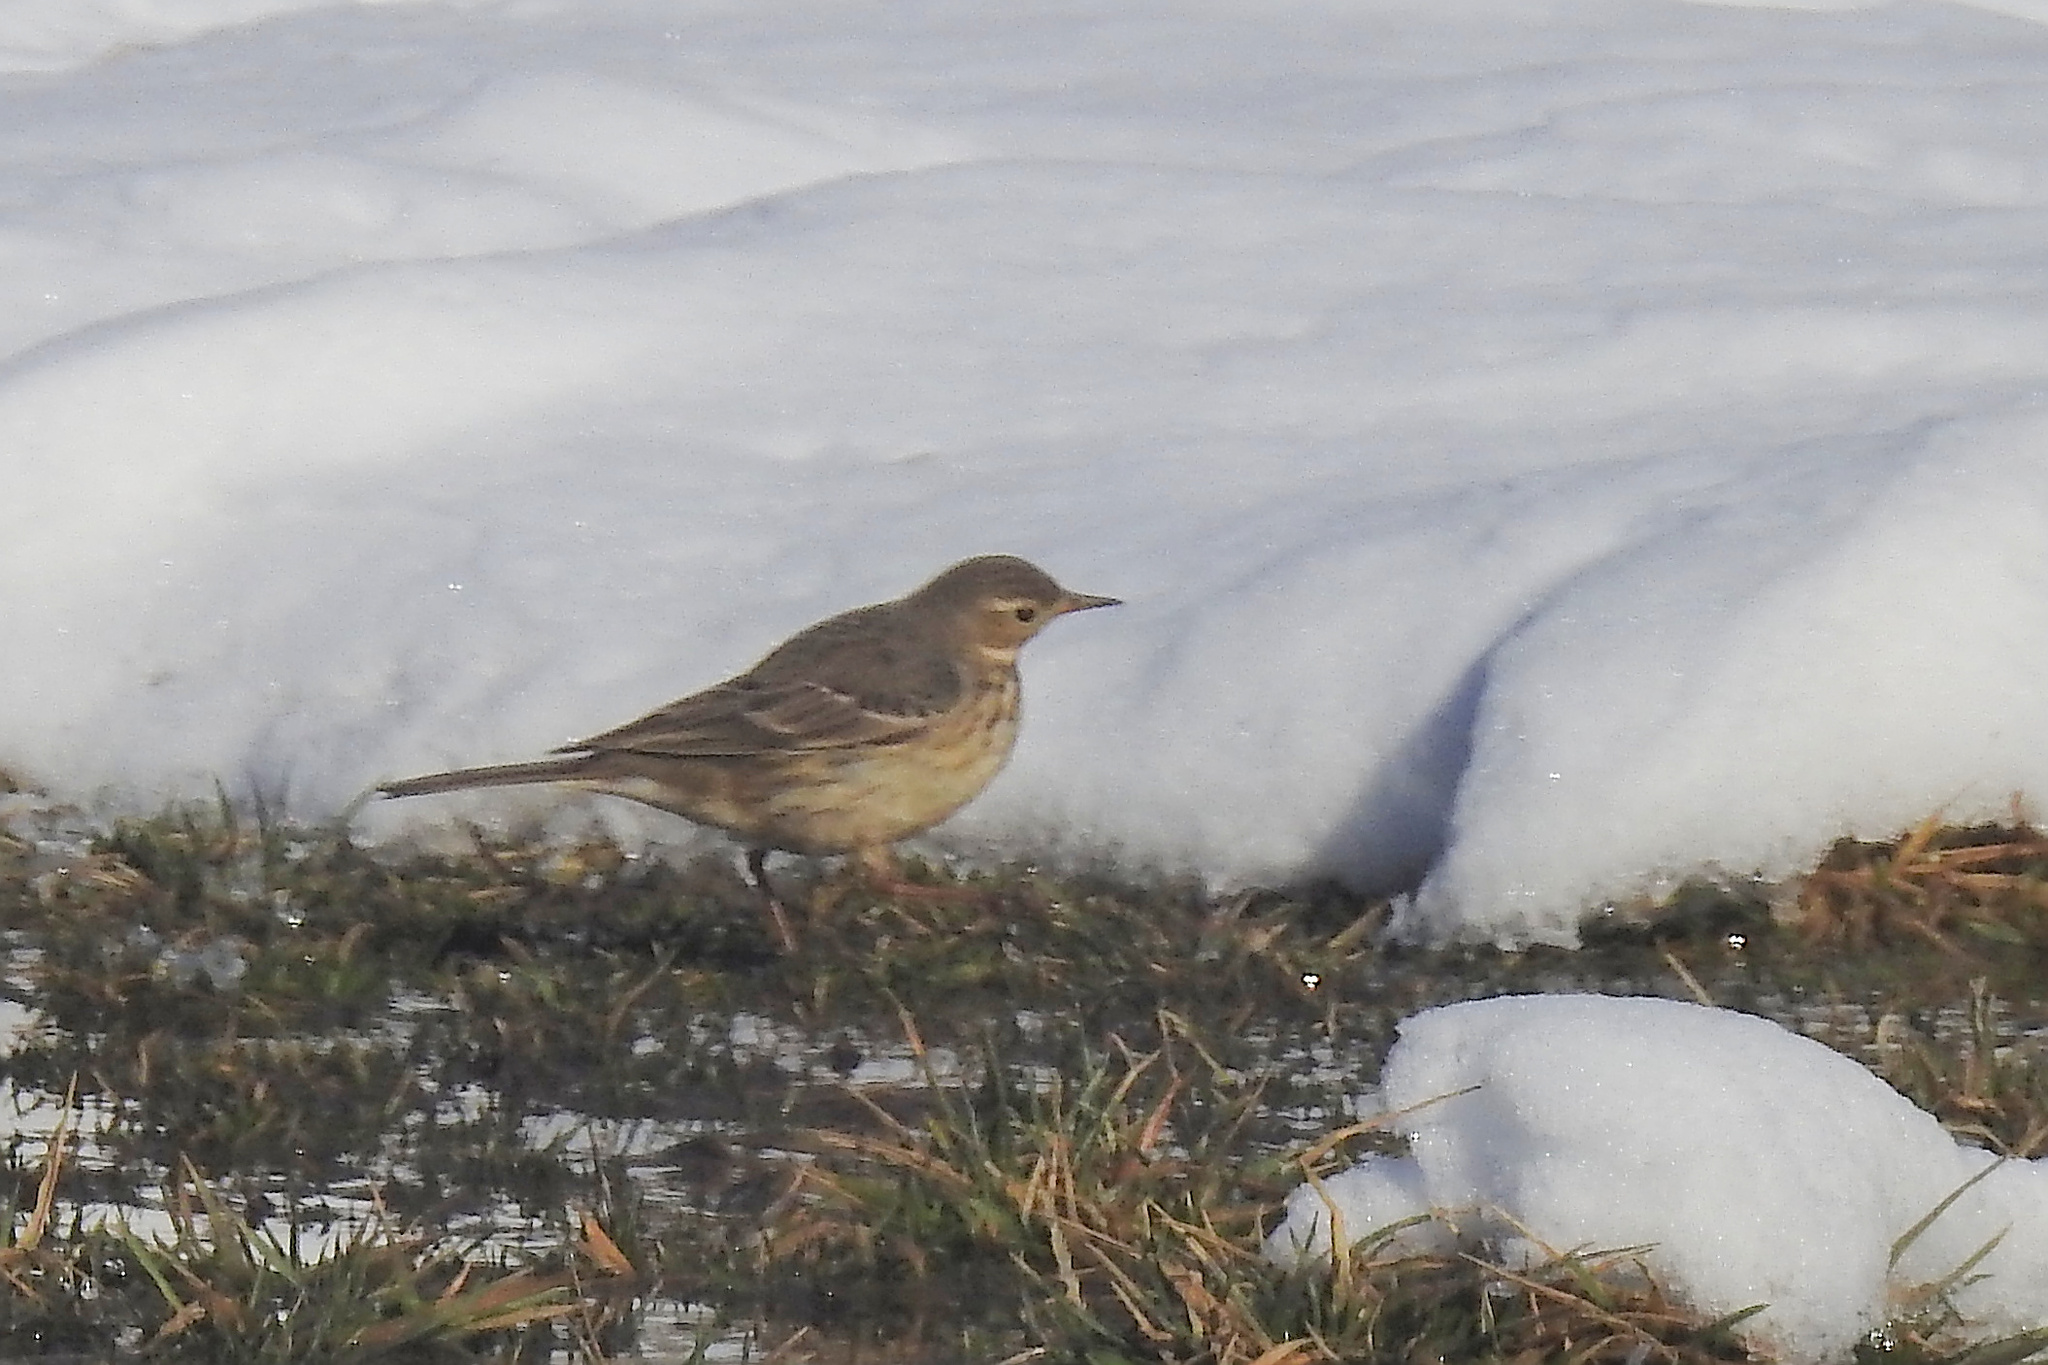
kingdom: Animalia
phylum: Chordata
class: Aves
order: Passeriformes
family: Motacillidae
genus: Anthus
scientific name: Anthus rubescens
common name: Buff-bellied pipit
